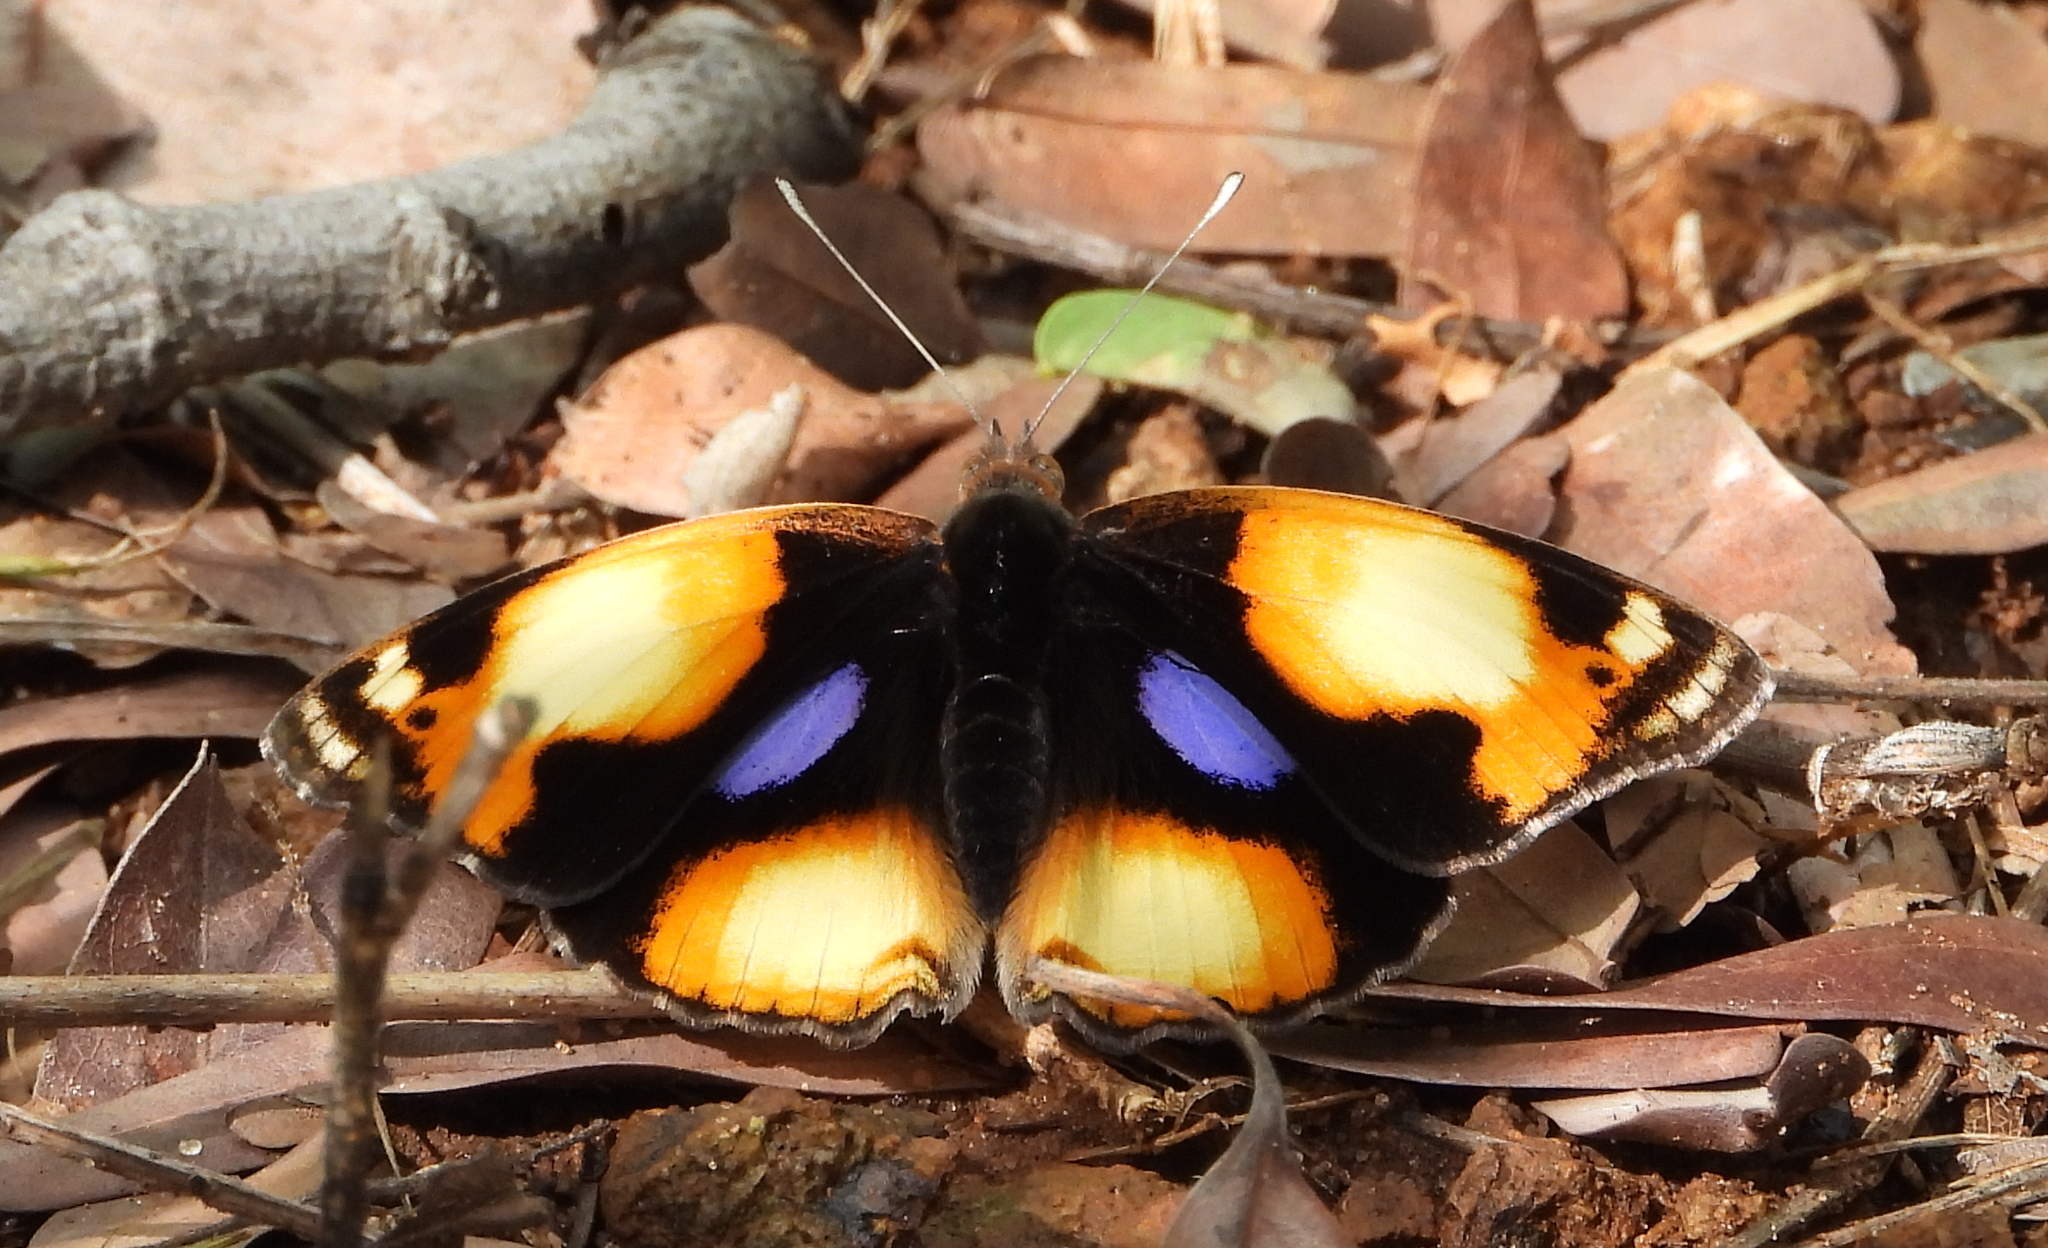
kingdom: Animalia
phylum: Arthropoda
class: Insecta
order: Lepidoptera
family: Nymphalidae
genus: Junonia
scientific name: Junonia hierta
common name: Yellow pansy
